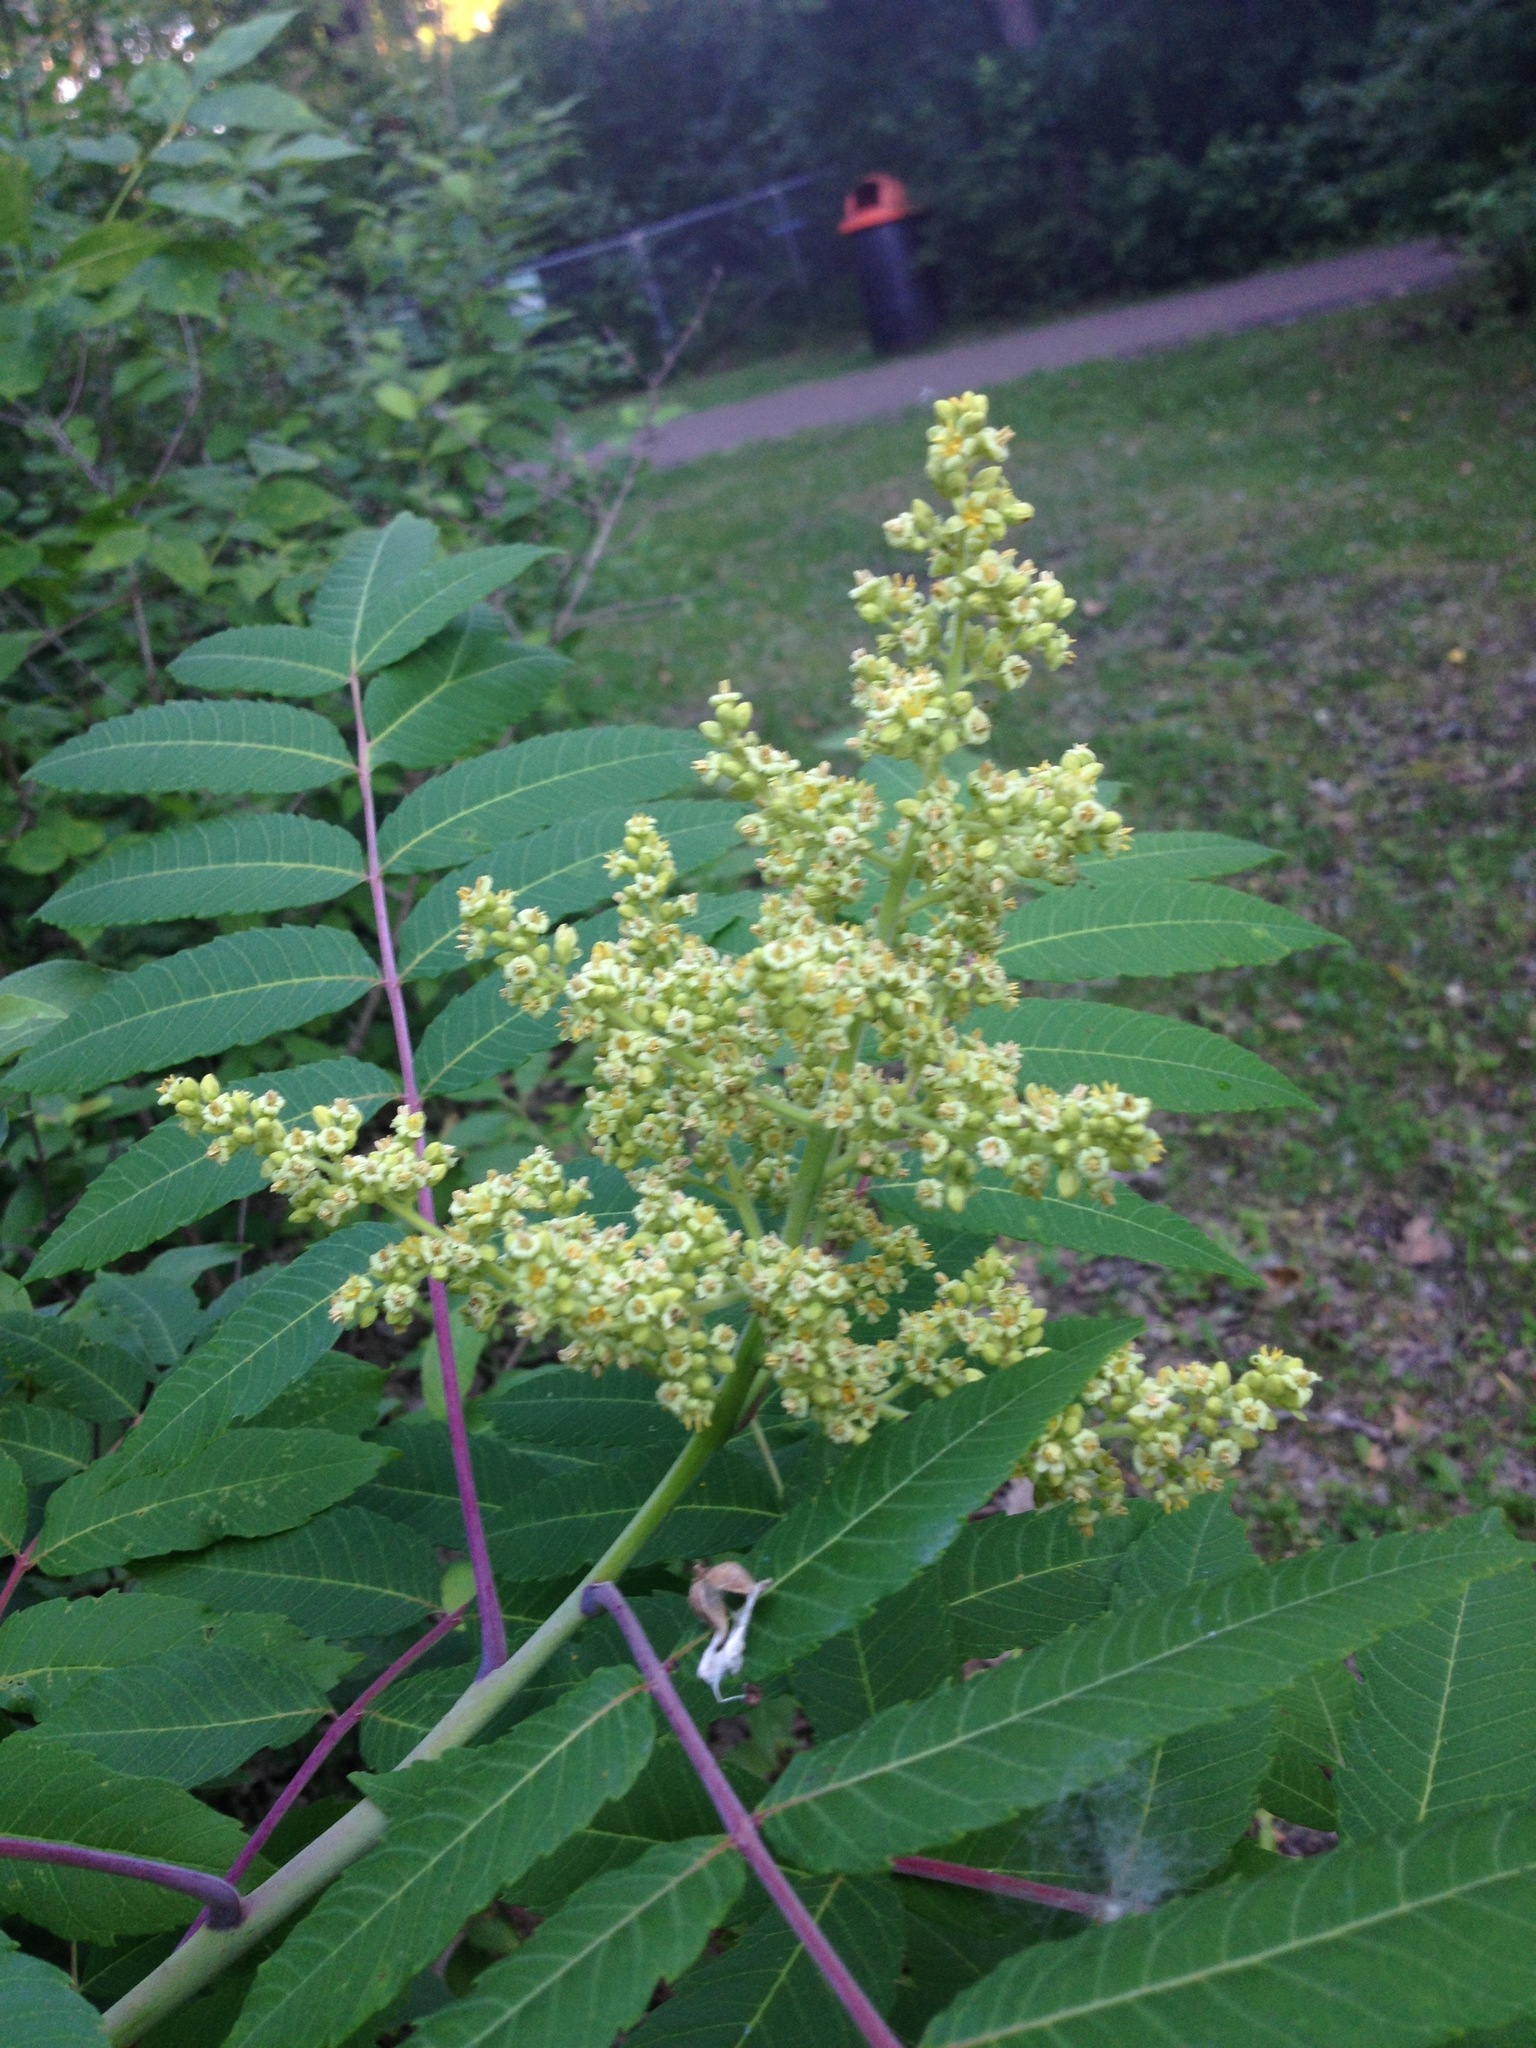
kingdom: Plantae
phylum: Tracheophyta
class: Magnoliopsida
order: Sapindales
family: Anacardiaceae
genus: Rhus
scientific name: Rhus glabra
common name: Scarlet sumac
